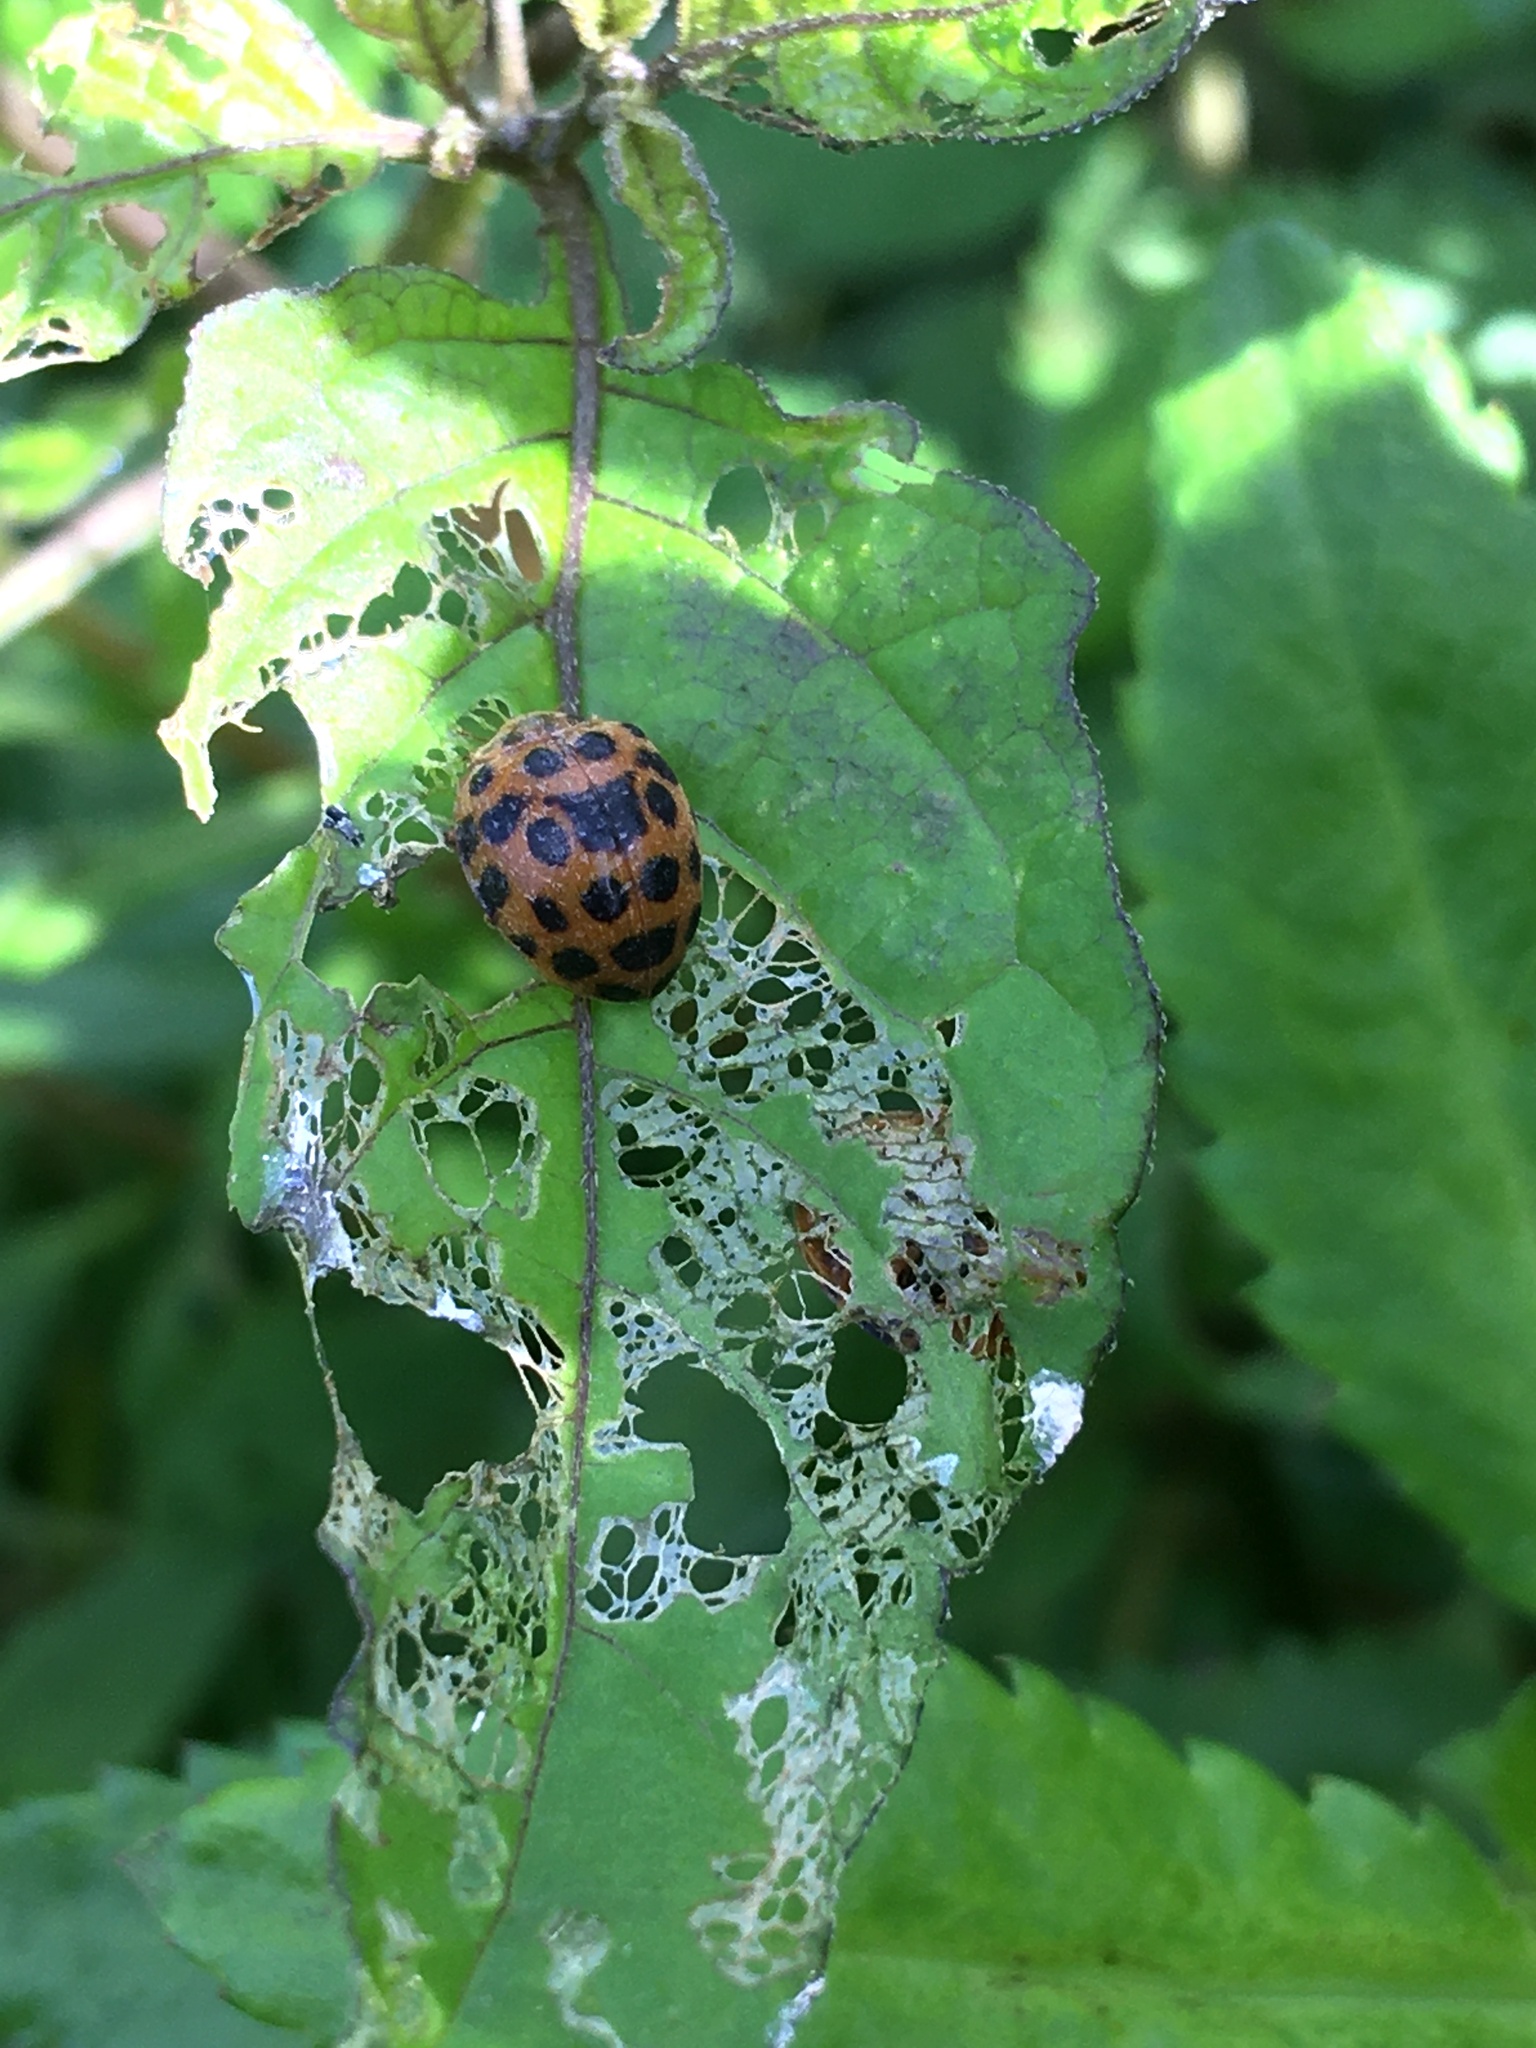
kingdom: Animalia
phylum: Arthropoda
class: Insecta
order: Coleoptera
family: Coccinellidae
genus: Henosepilachna
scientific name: Henosepilachna vigintioctopunctata
